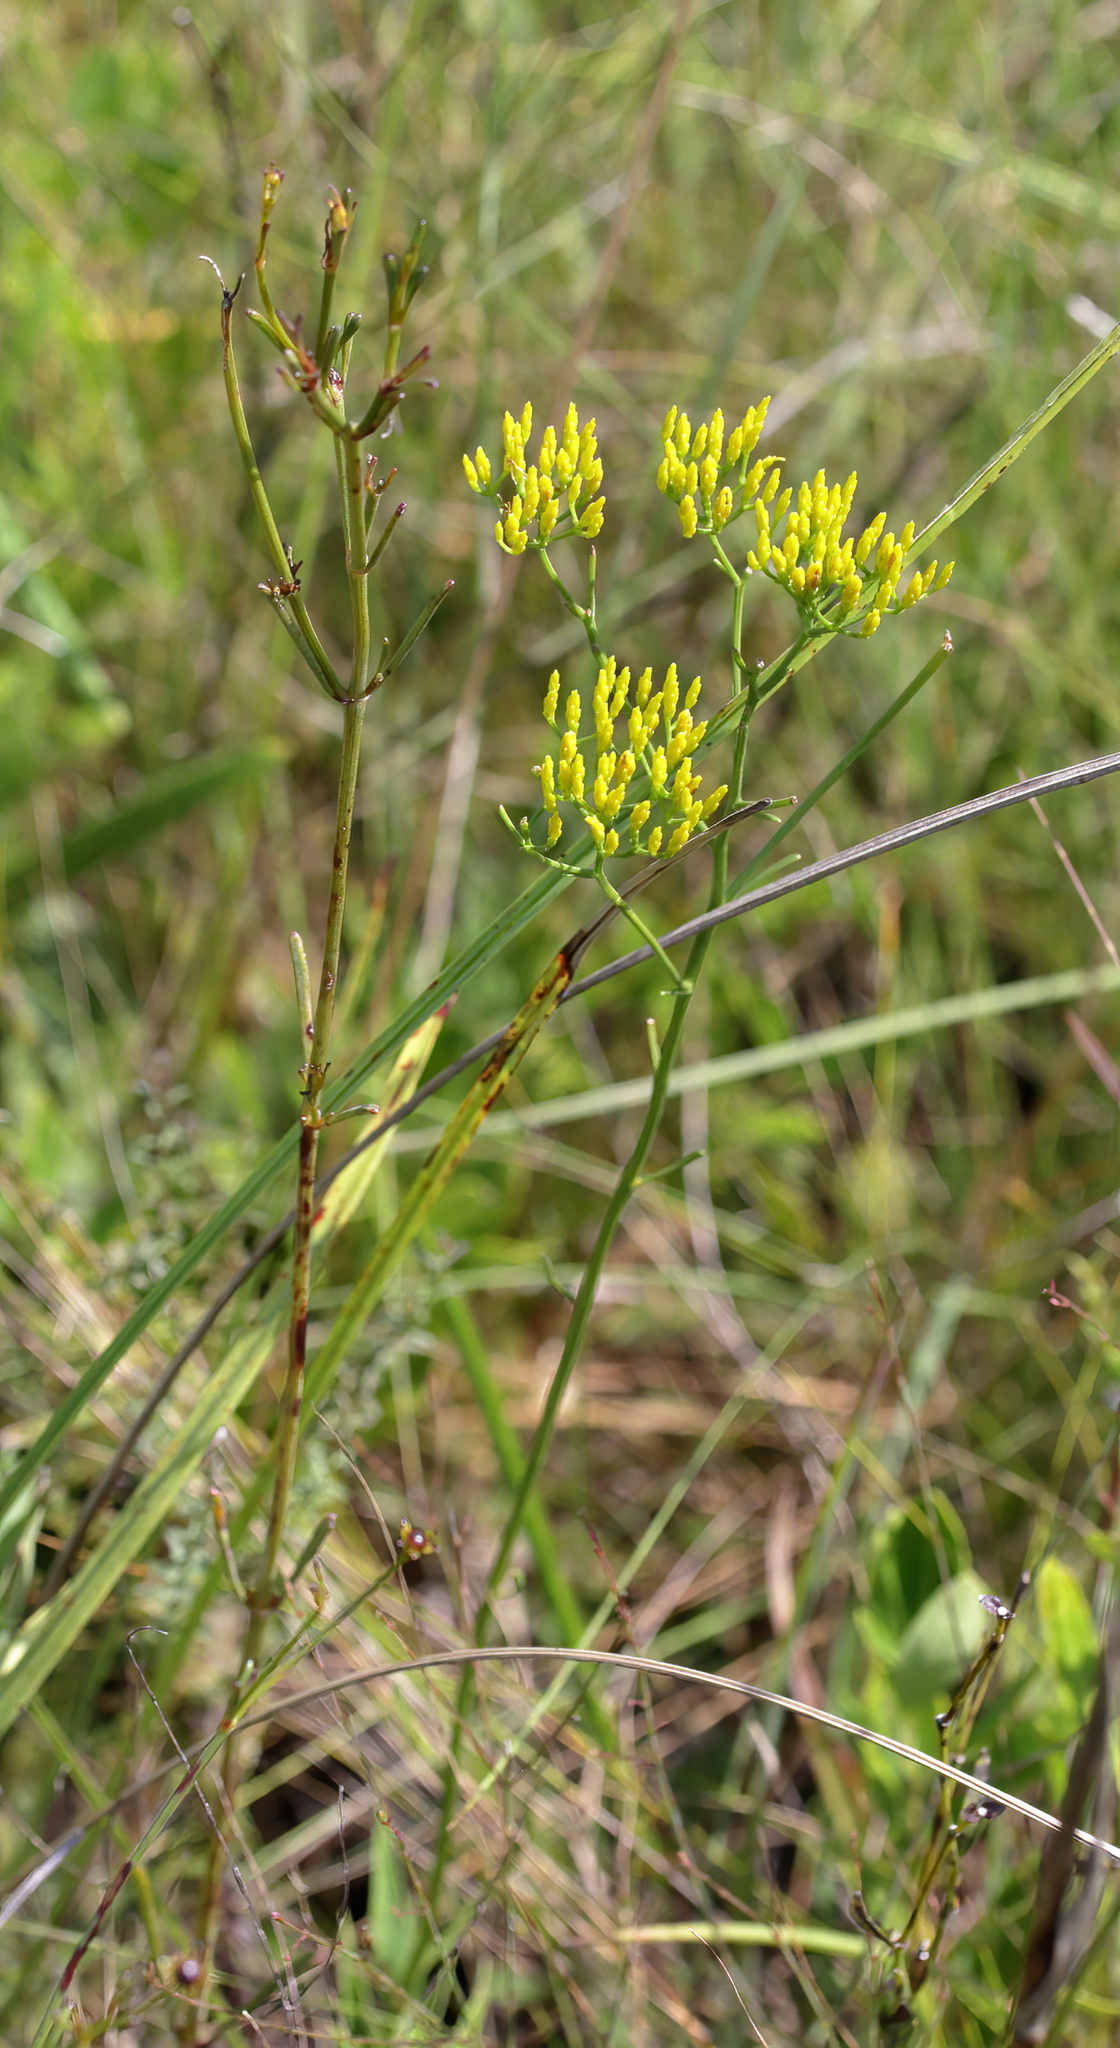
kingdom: Plantae
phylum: Tracheophyta
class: Magnoliopsida
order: Asterales
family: Asteraceae
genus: Bigelowia
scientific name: Bigelowia nudata
